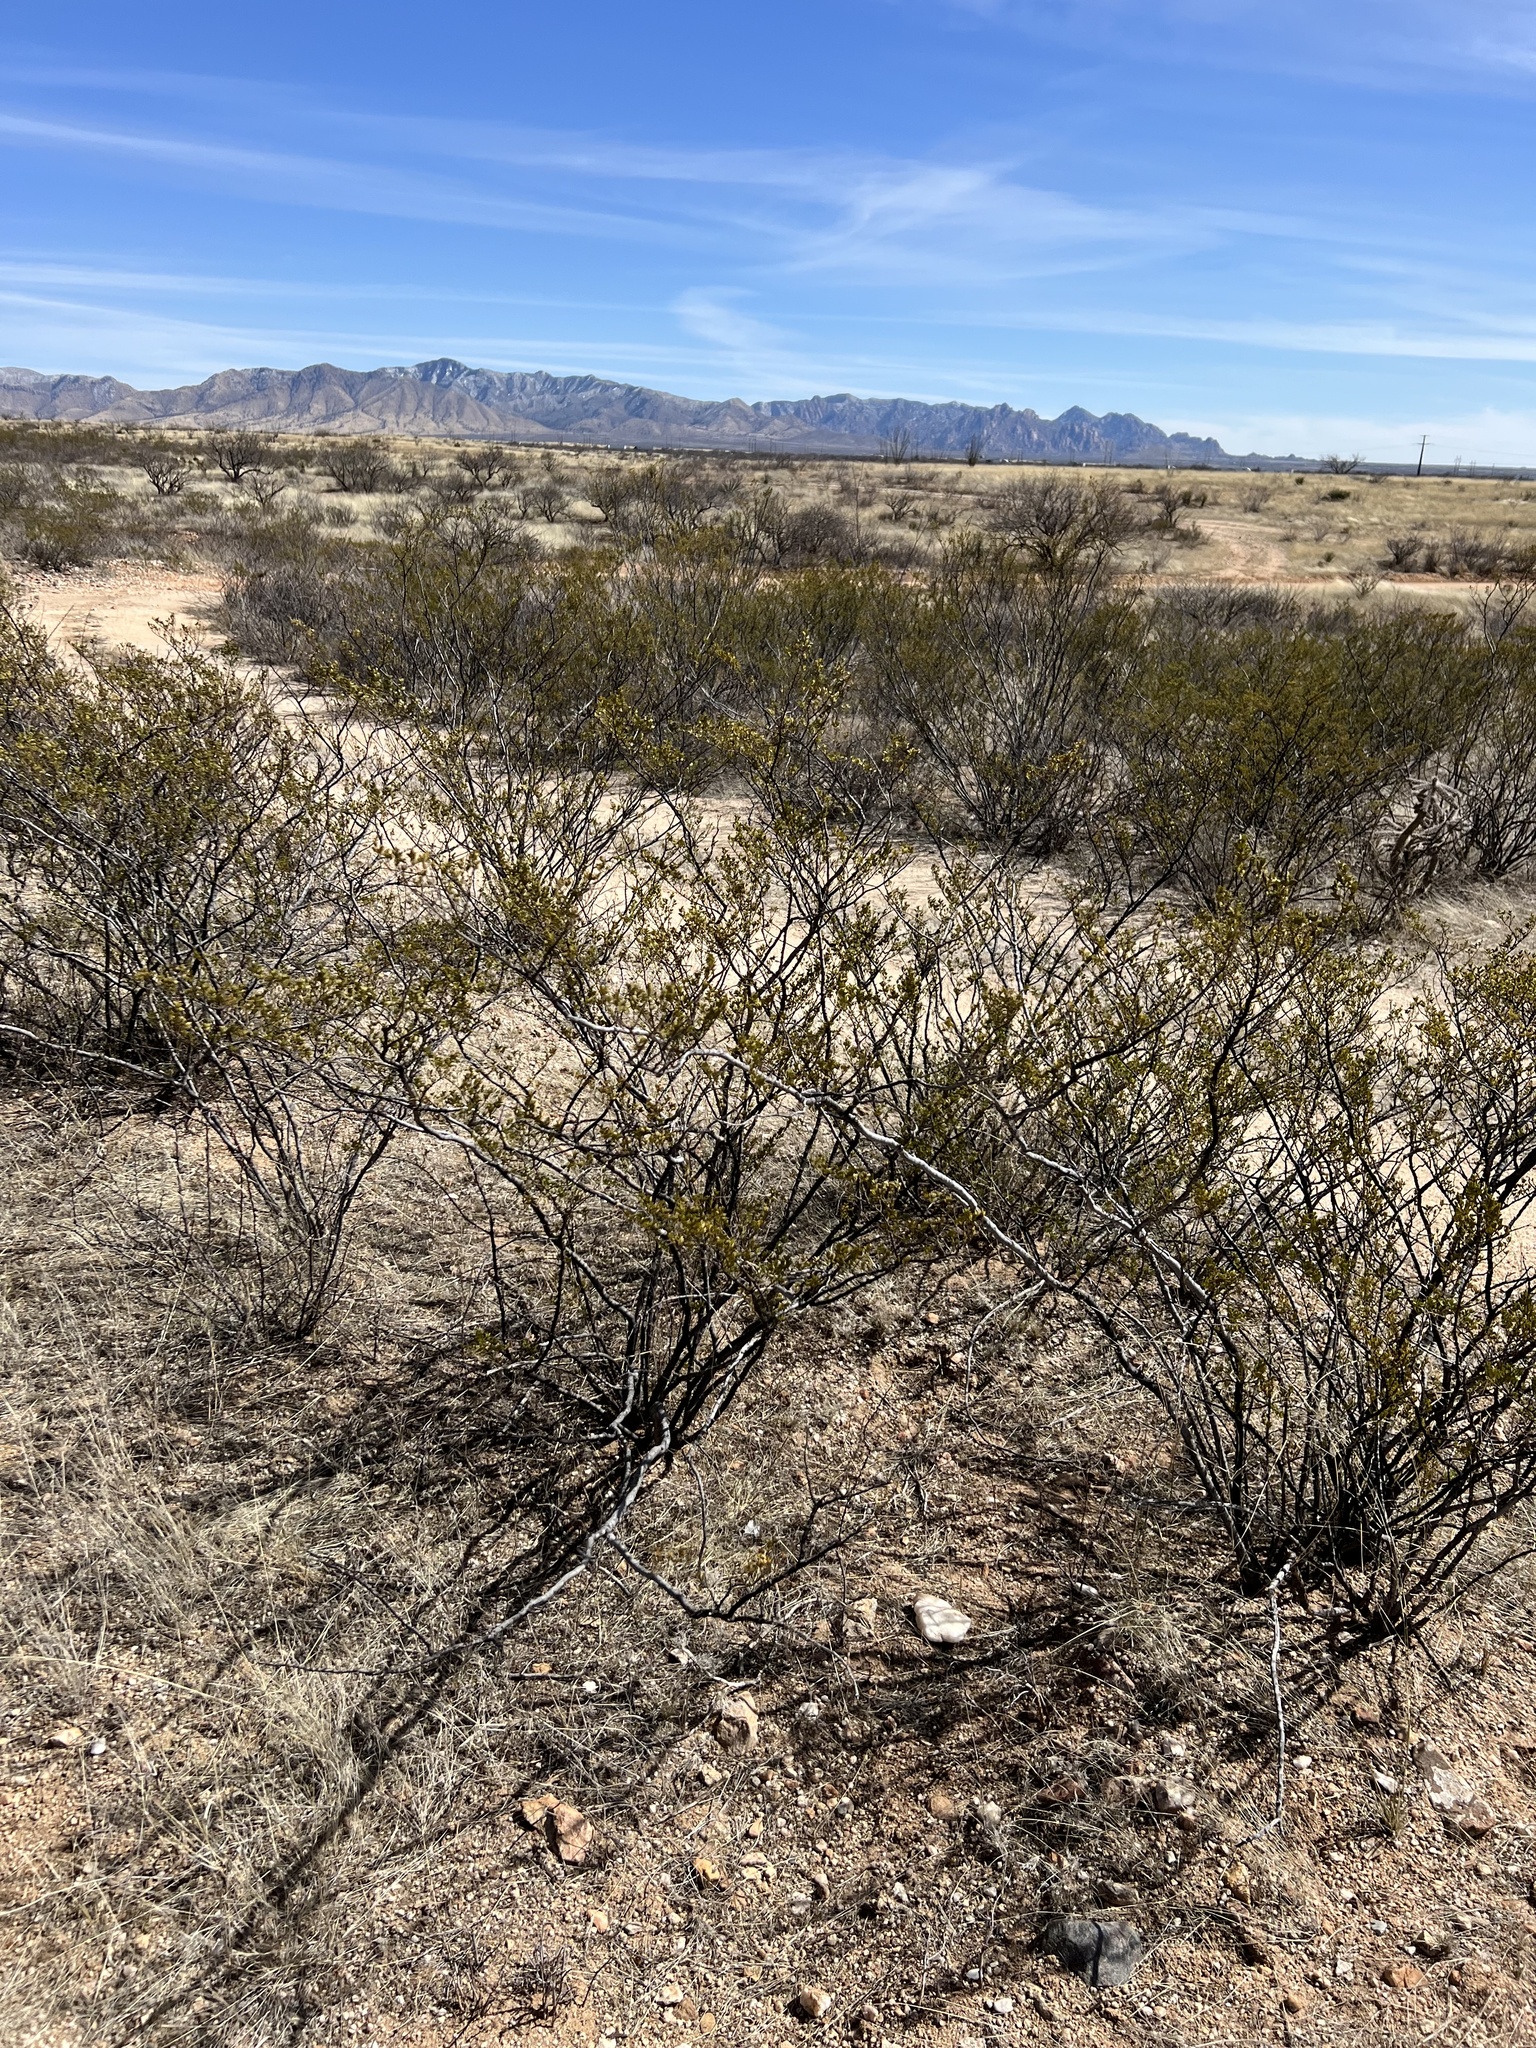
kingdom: Plantae
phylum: Tracheophyta
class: Magnoliopsida
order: Zygophyllales
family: Zygophyllaceae
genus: Larrea
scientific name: Larrea tridentata
